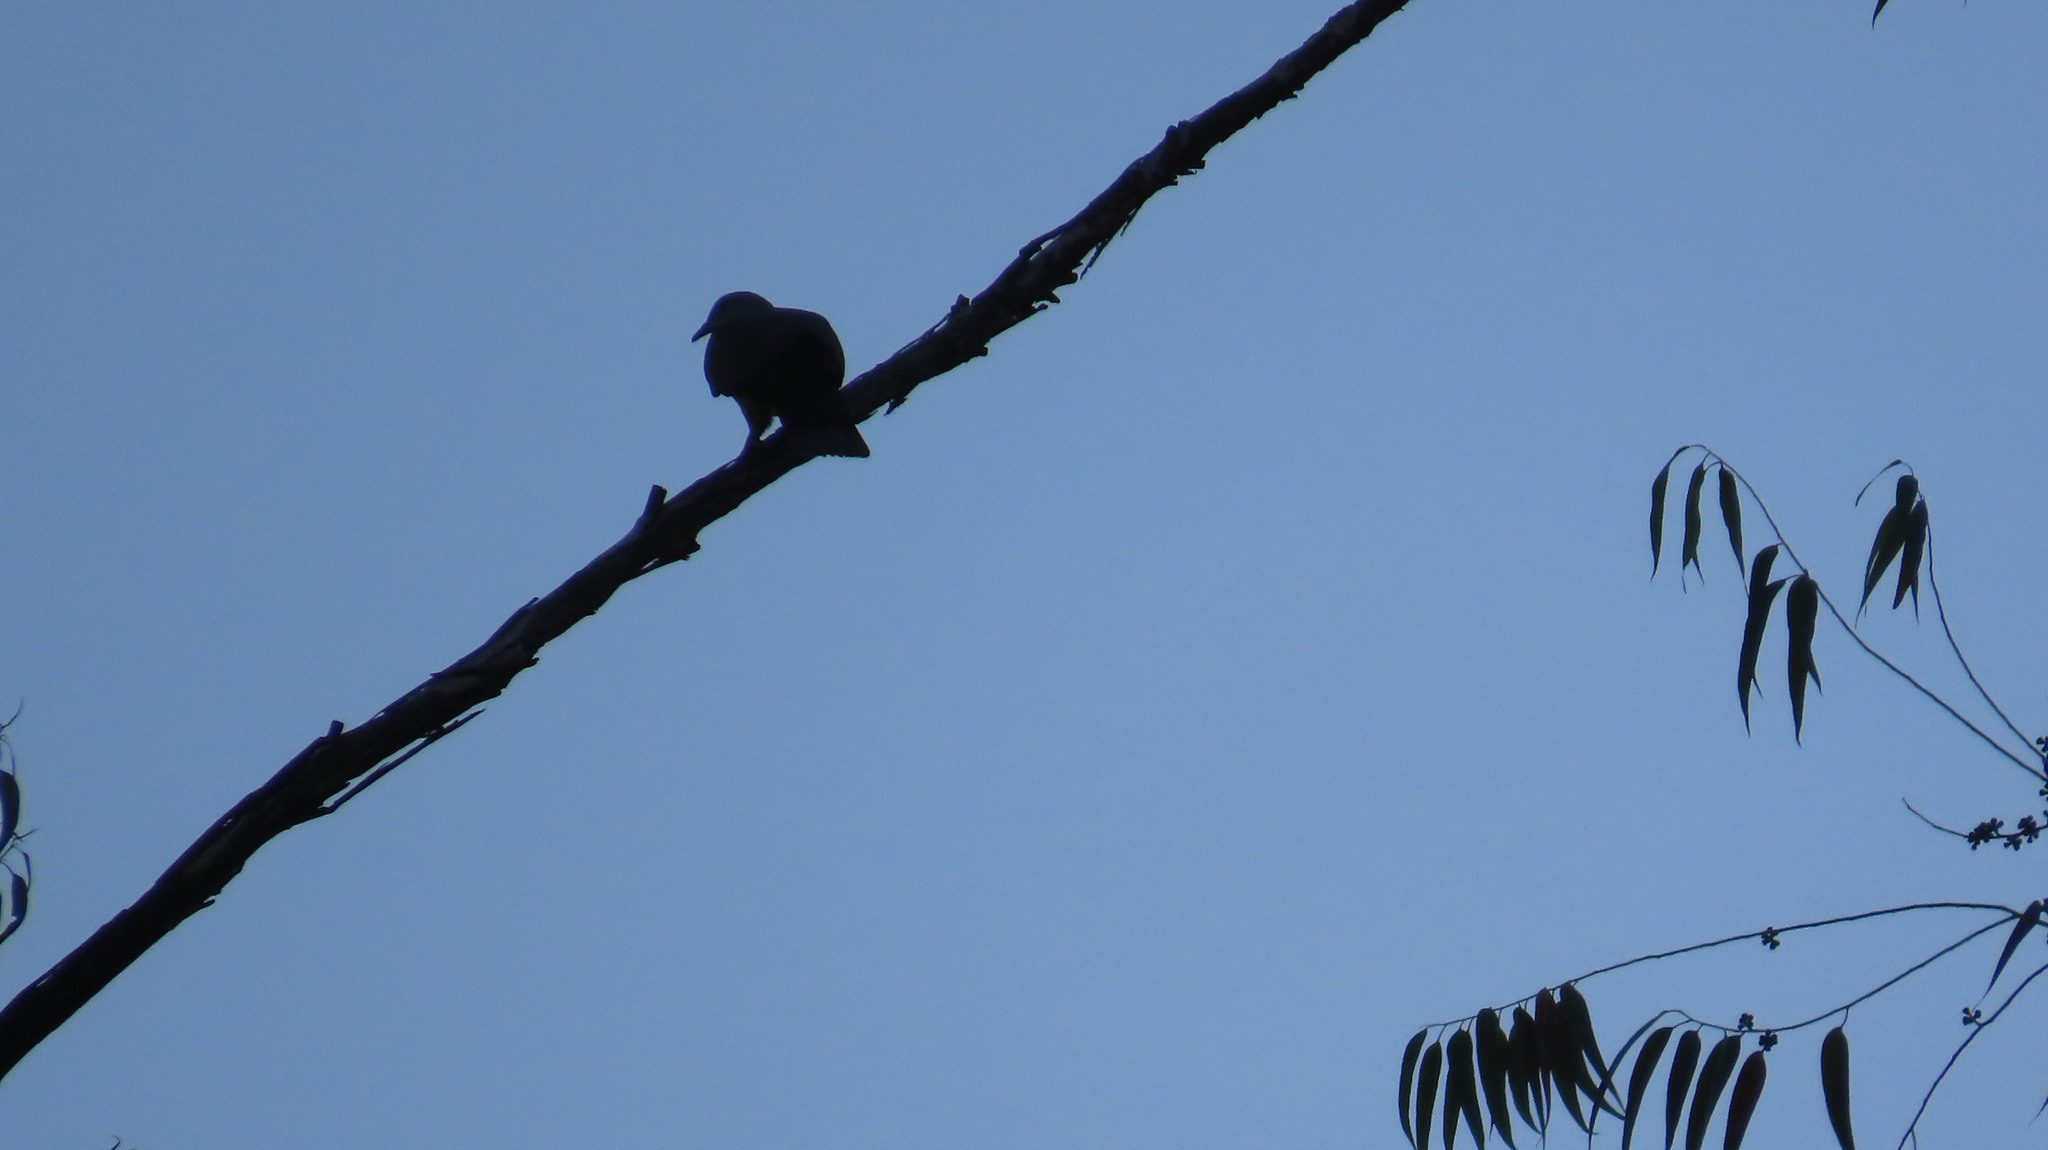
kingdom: Animalia
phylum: Chordata
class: Aves
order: Columbiformes
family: Columbidae
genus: Ducula
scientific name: Ducula badia
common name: Mountain imperial pigeon
